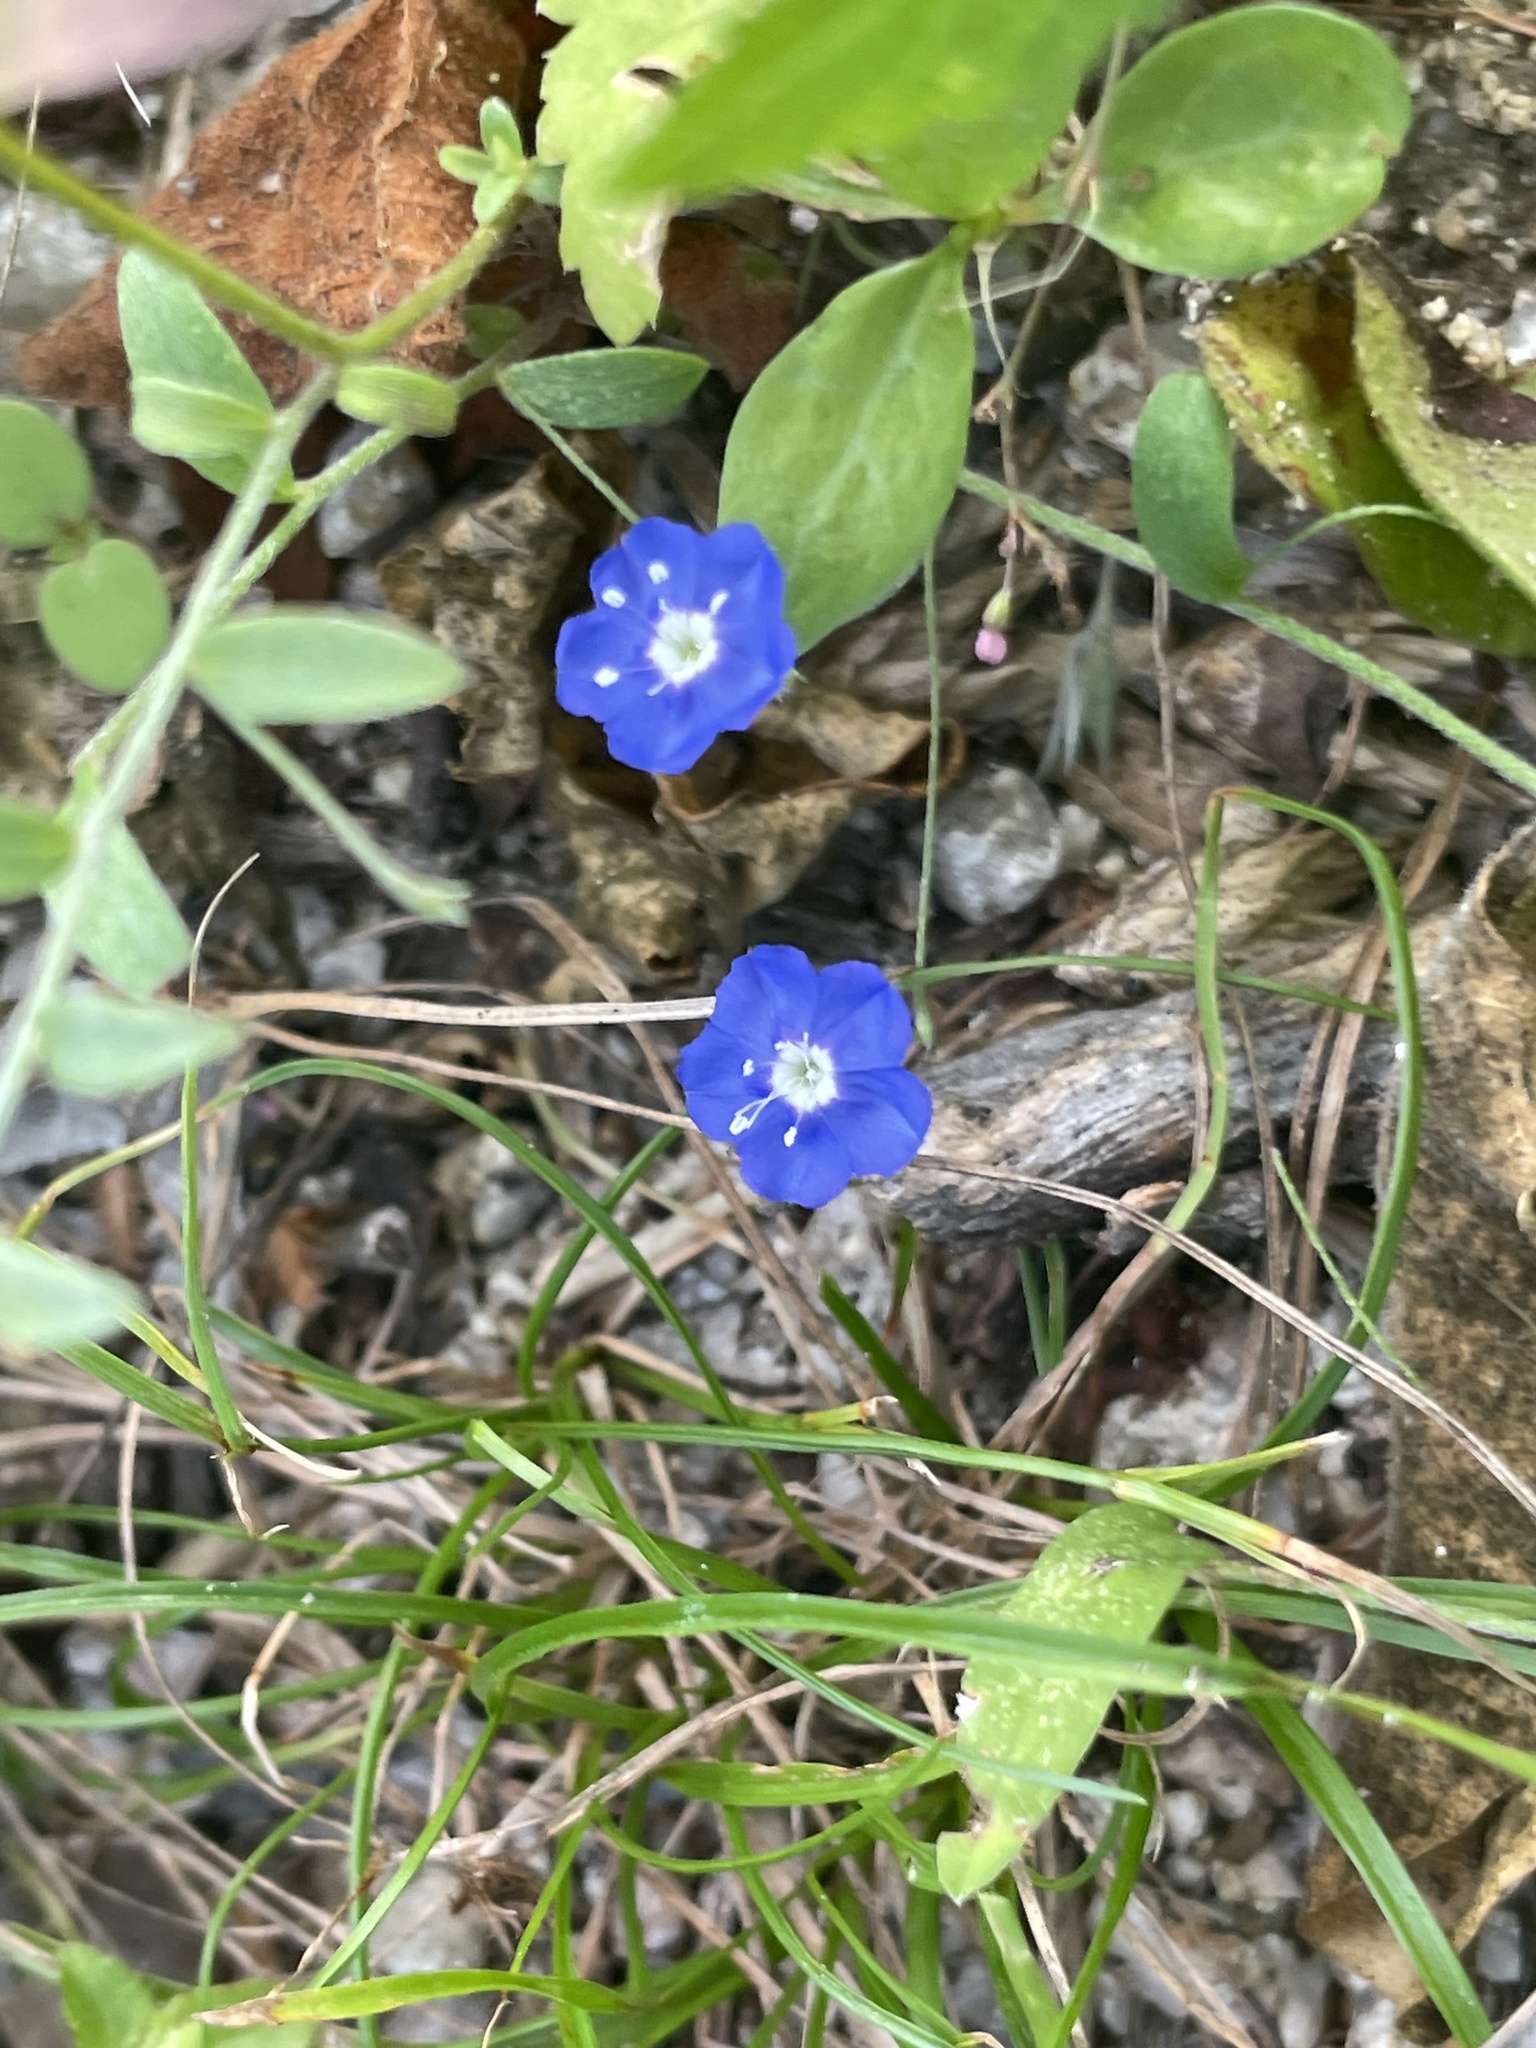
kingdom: Plantae
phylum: Tracheophyta
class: Magnoliopsida
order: Solanales
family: Convolvulaceae
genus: Evolvulus
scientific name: Evolvulus alsinoides
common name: Slender dwarf morning-glory
